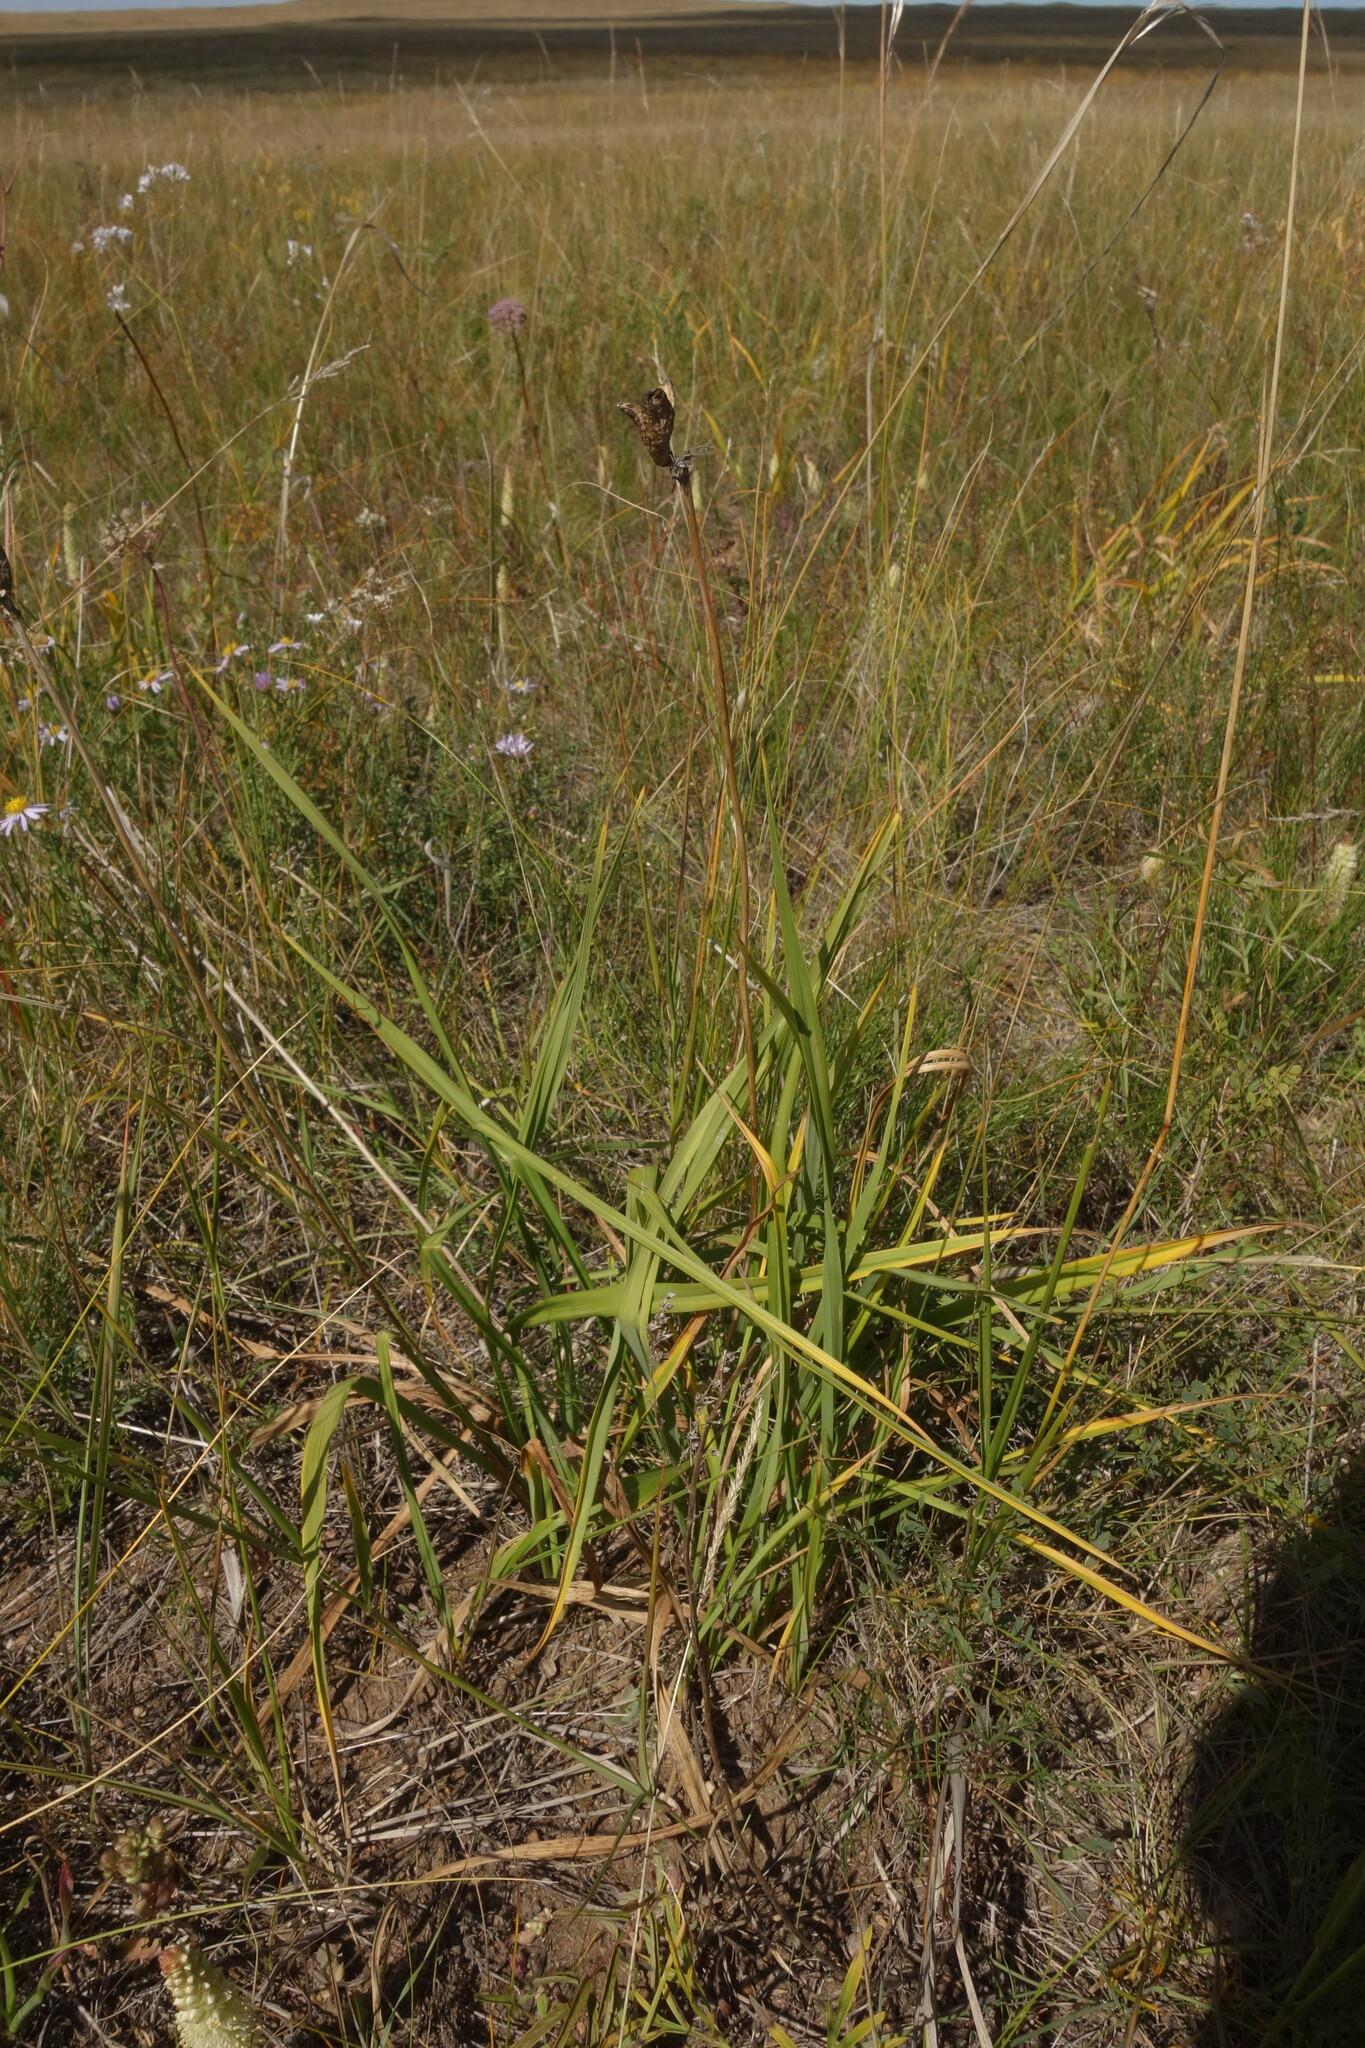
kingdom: Plantae
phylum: Tracheophyta
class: Liliopsida
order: Asparagales
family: Asphodelaceae
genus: Hemerocallis
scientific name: Hemerocallis minor
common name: Small daylily
